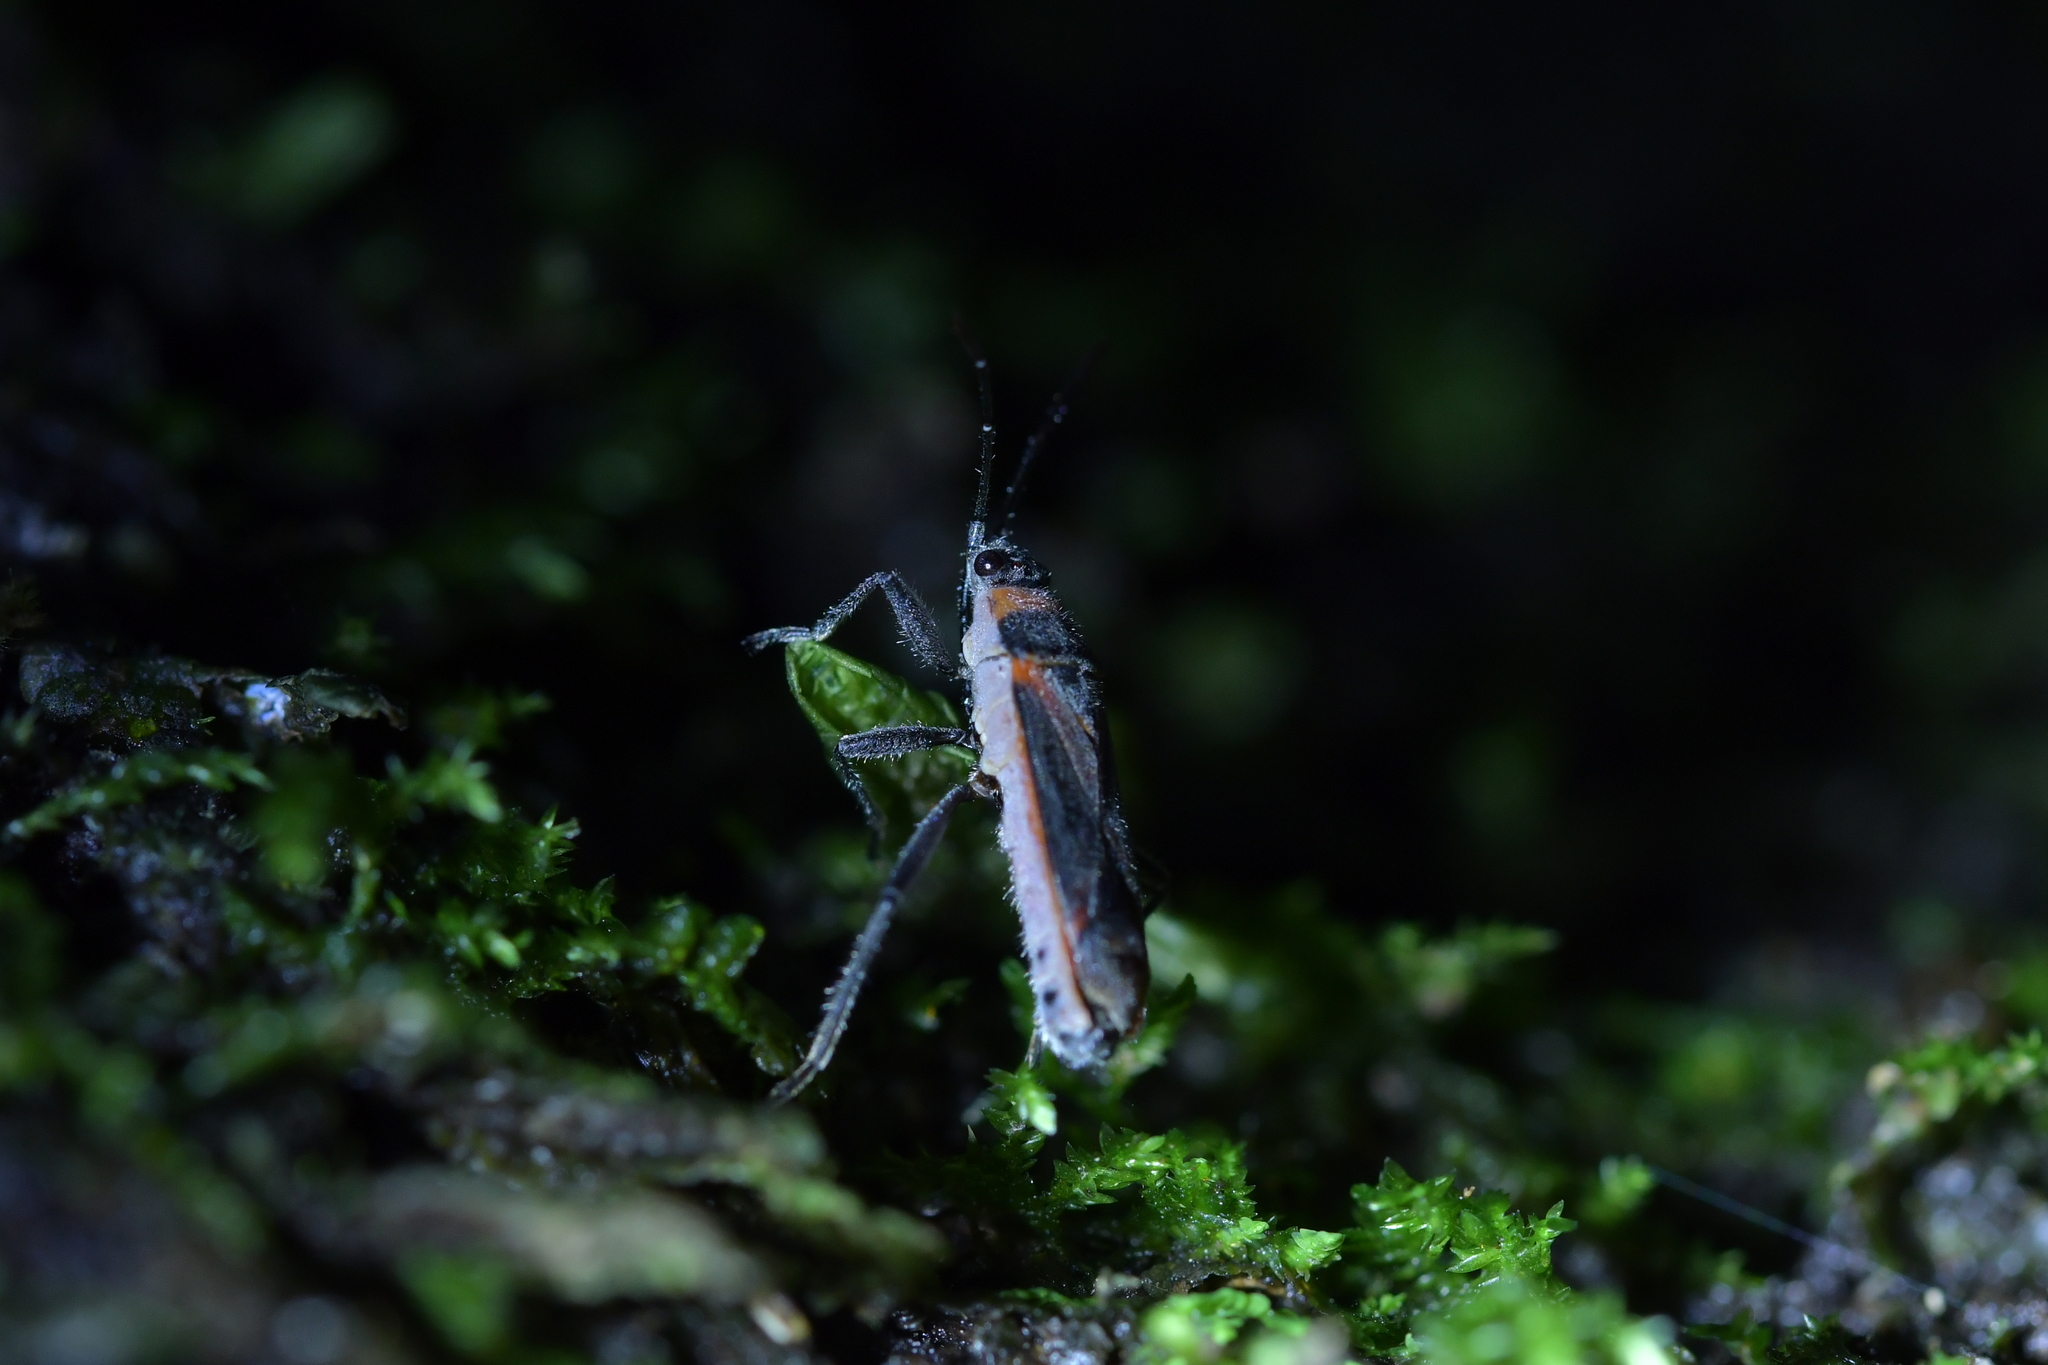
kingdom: Animalia
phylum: Arthropoda
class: Insecta
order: Hemiptera
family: Lygaeidae
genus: Arocatus
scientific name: Arocatus rusticus
